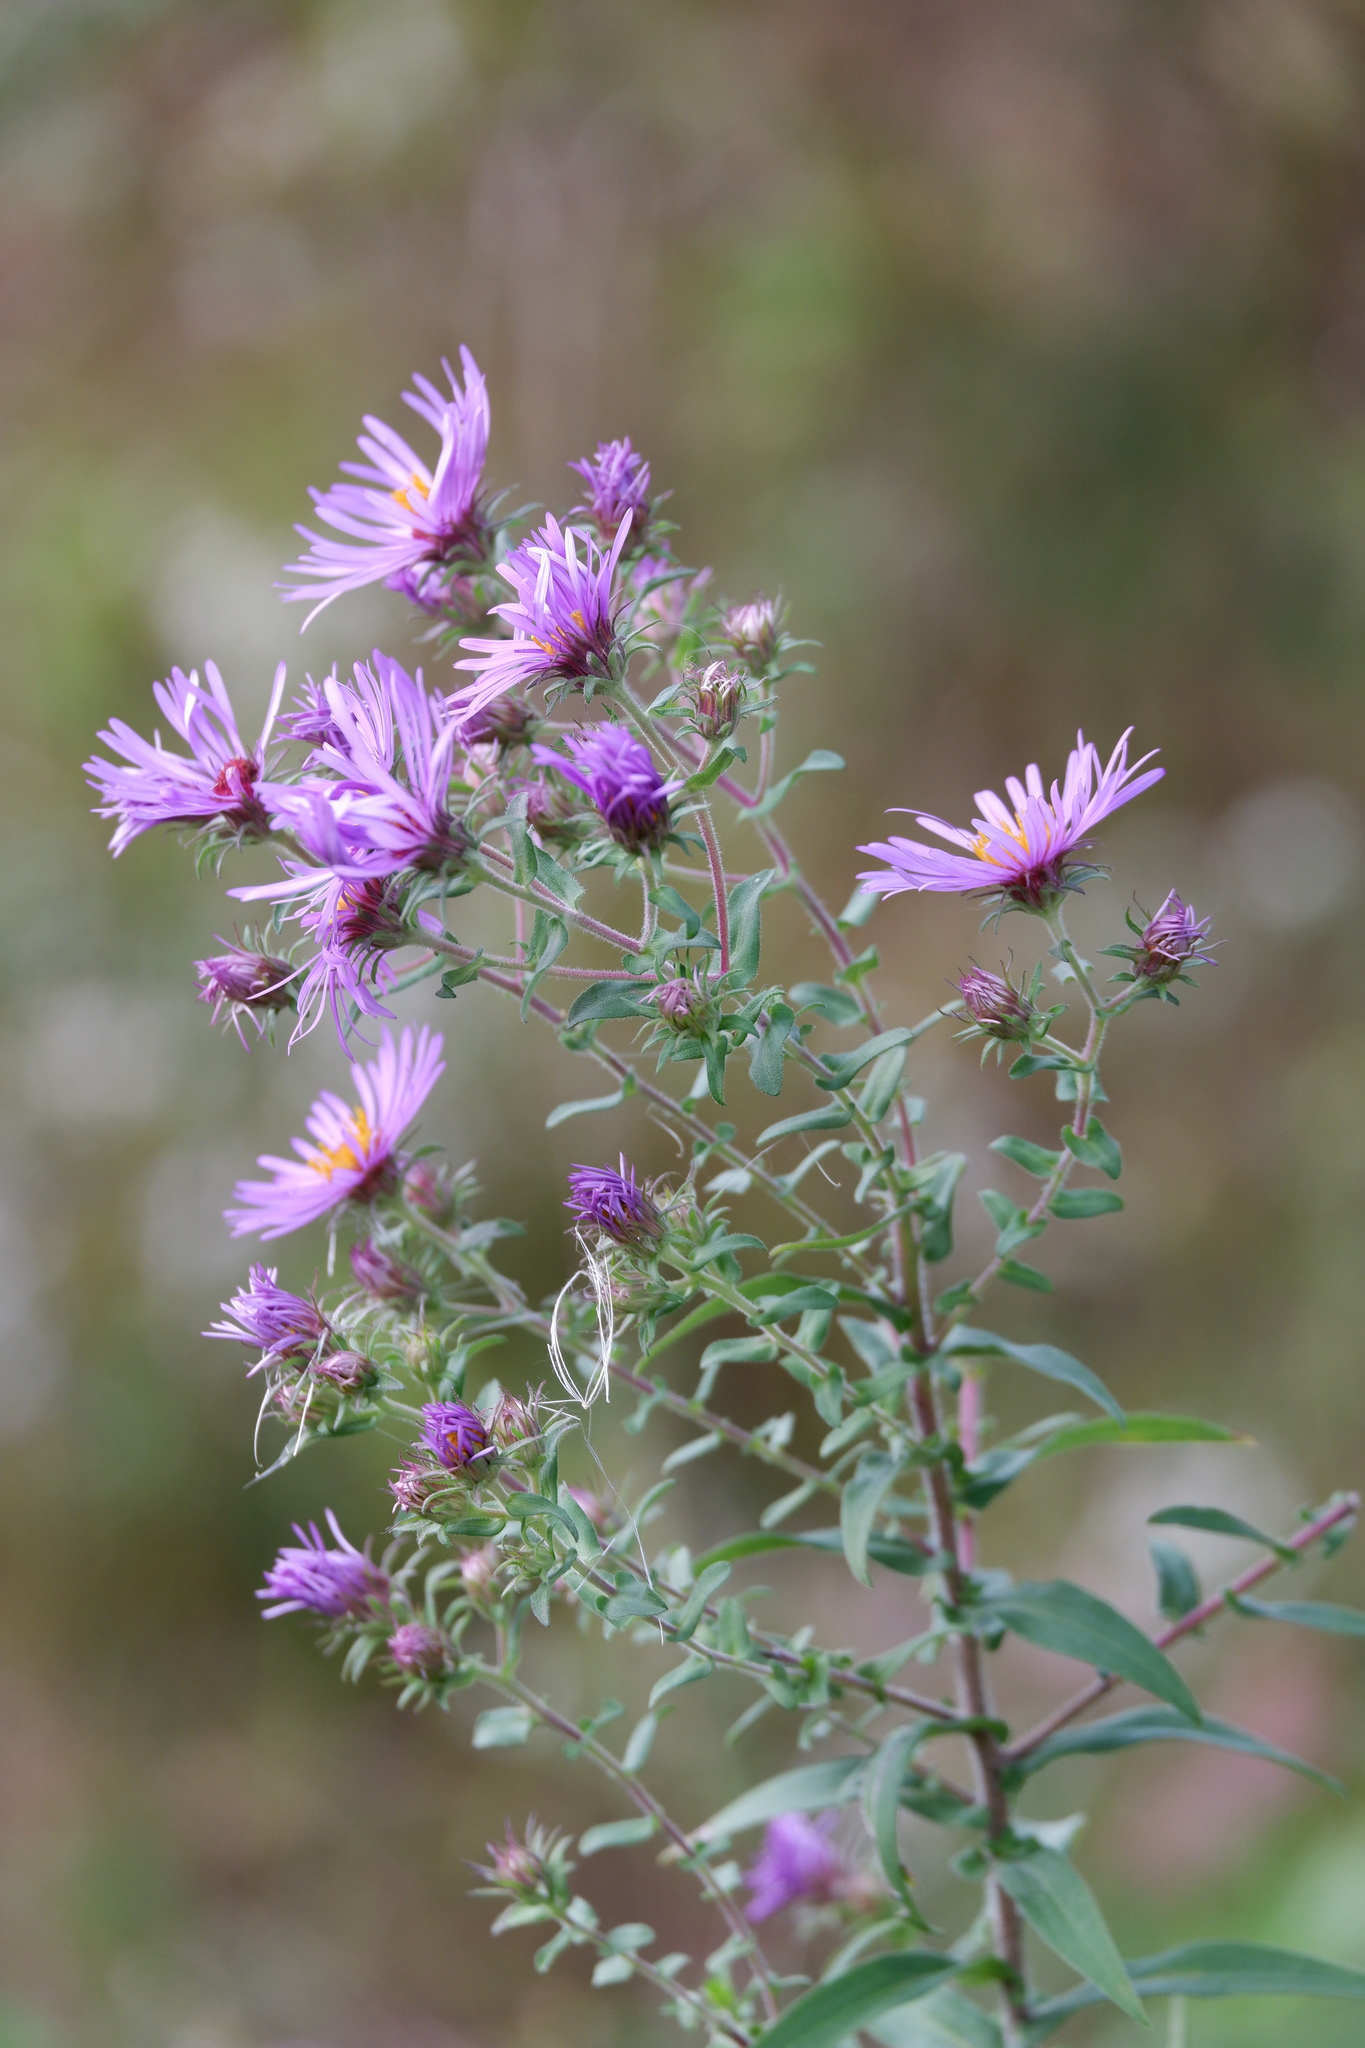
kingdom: Plantae
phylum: Tracheophyta
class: Magnoliopsida
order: Asterales
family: Asteraceae
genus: Symphyotrichum
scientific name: Symphyotrichum novae-angliae
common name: Michaelmas daisy
